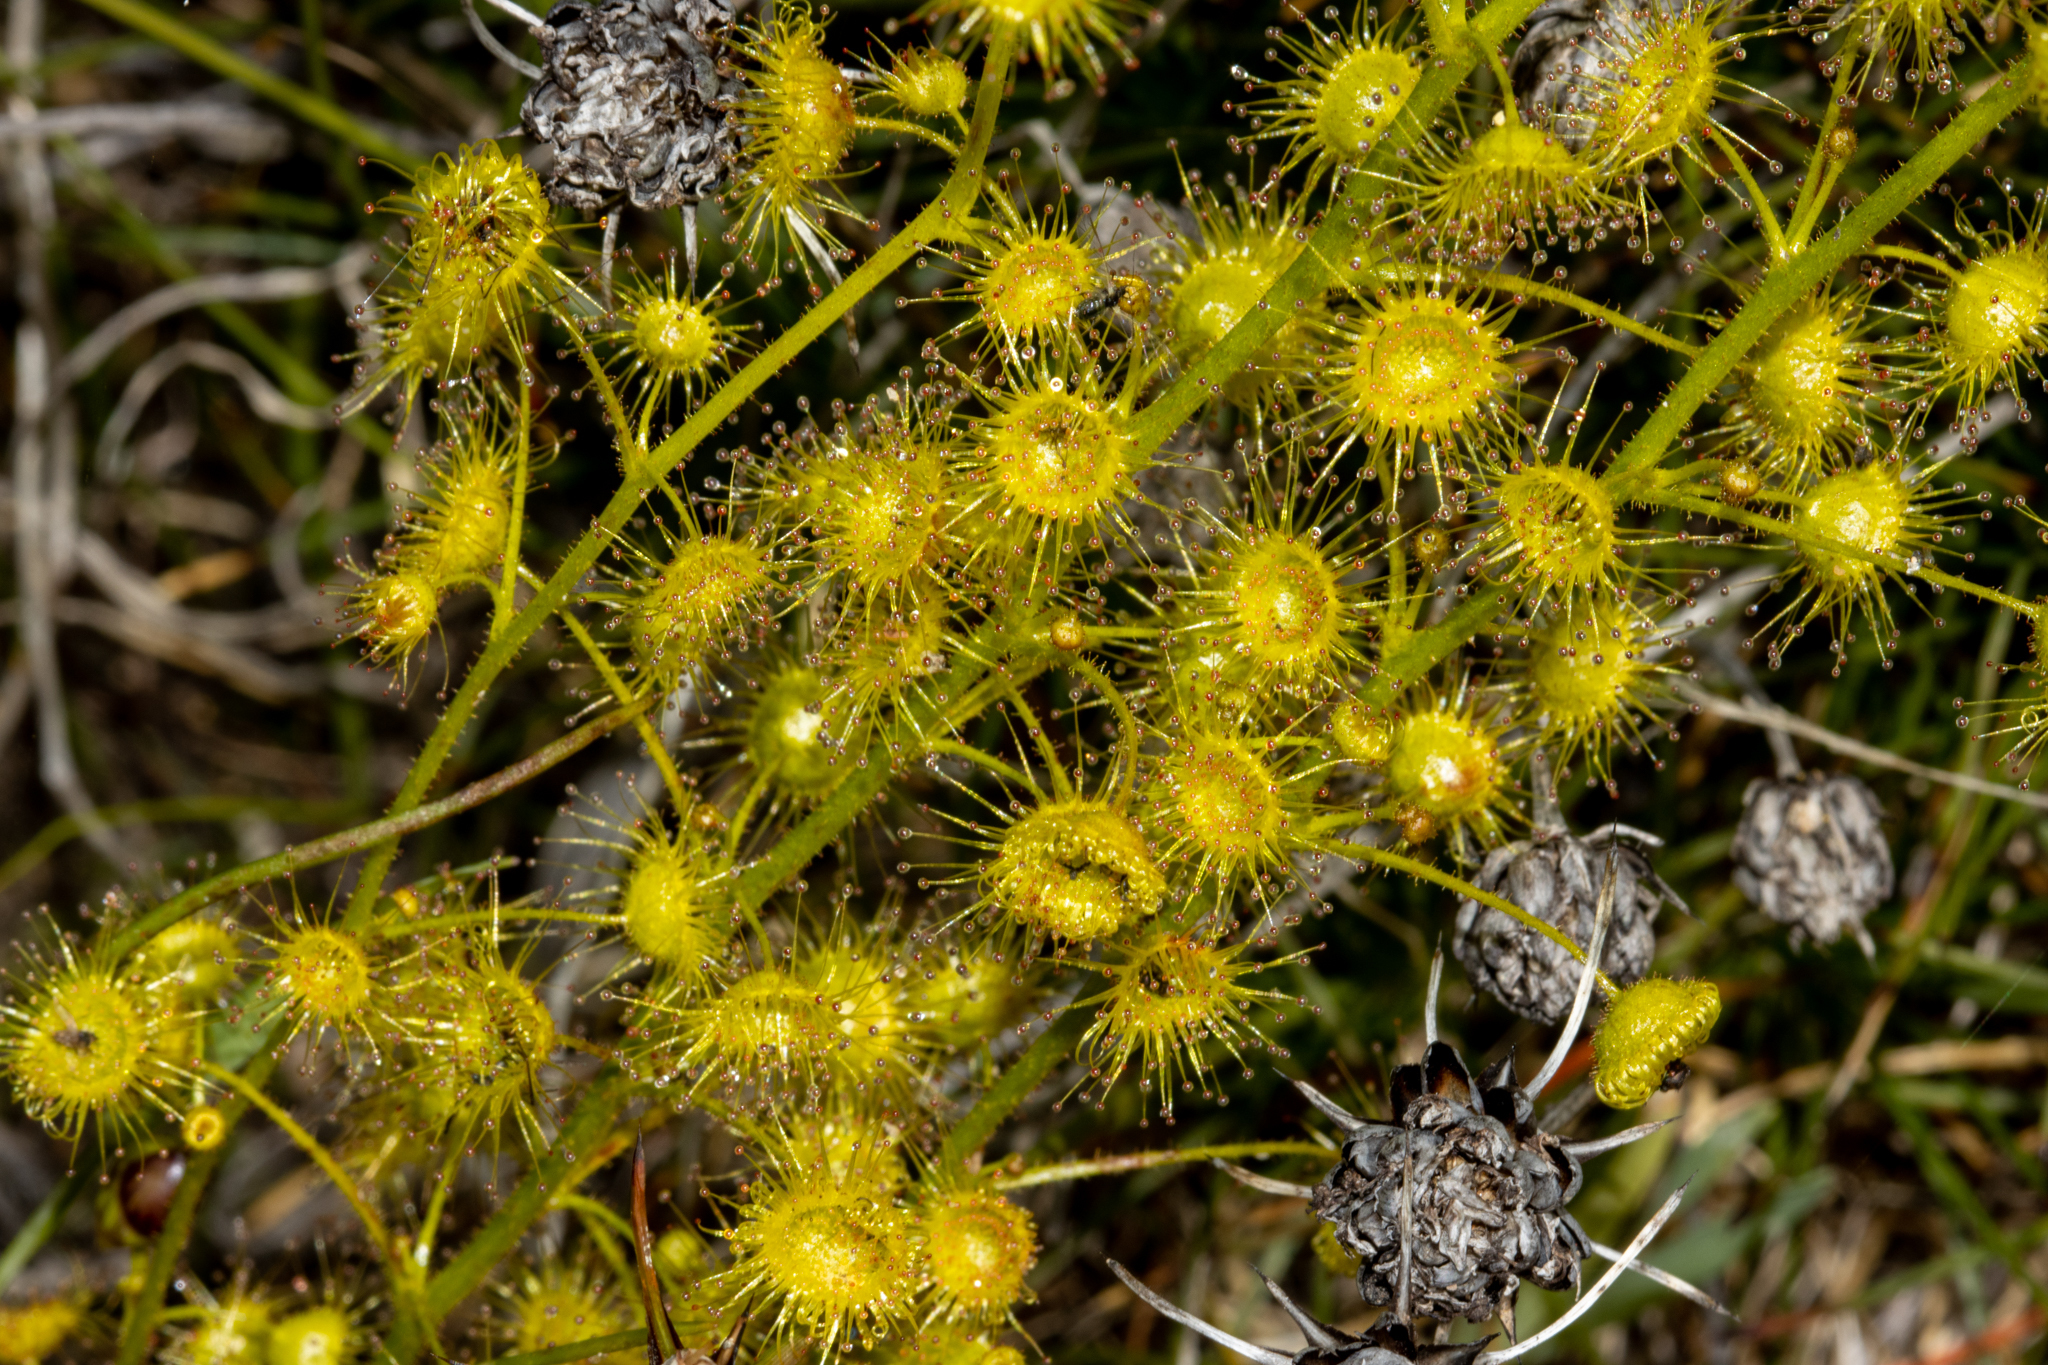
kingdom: Plantae
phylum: Tracheophyta
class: Magnoliopsida
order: Caryophyllales
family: Droseraceae
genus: Drosera
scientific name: Drosera stricticaulis
